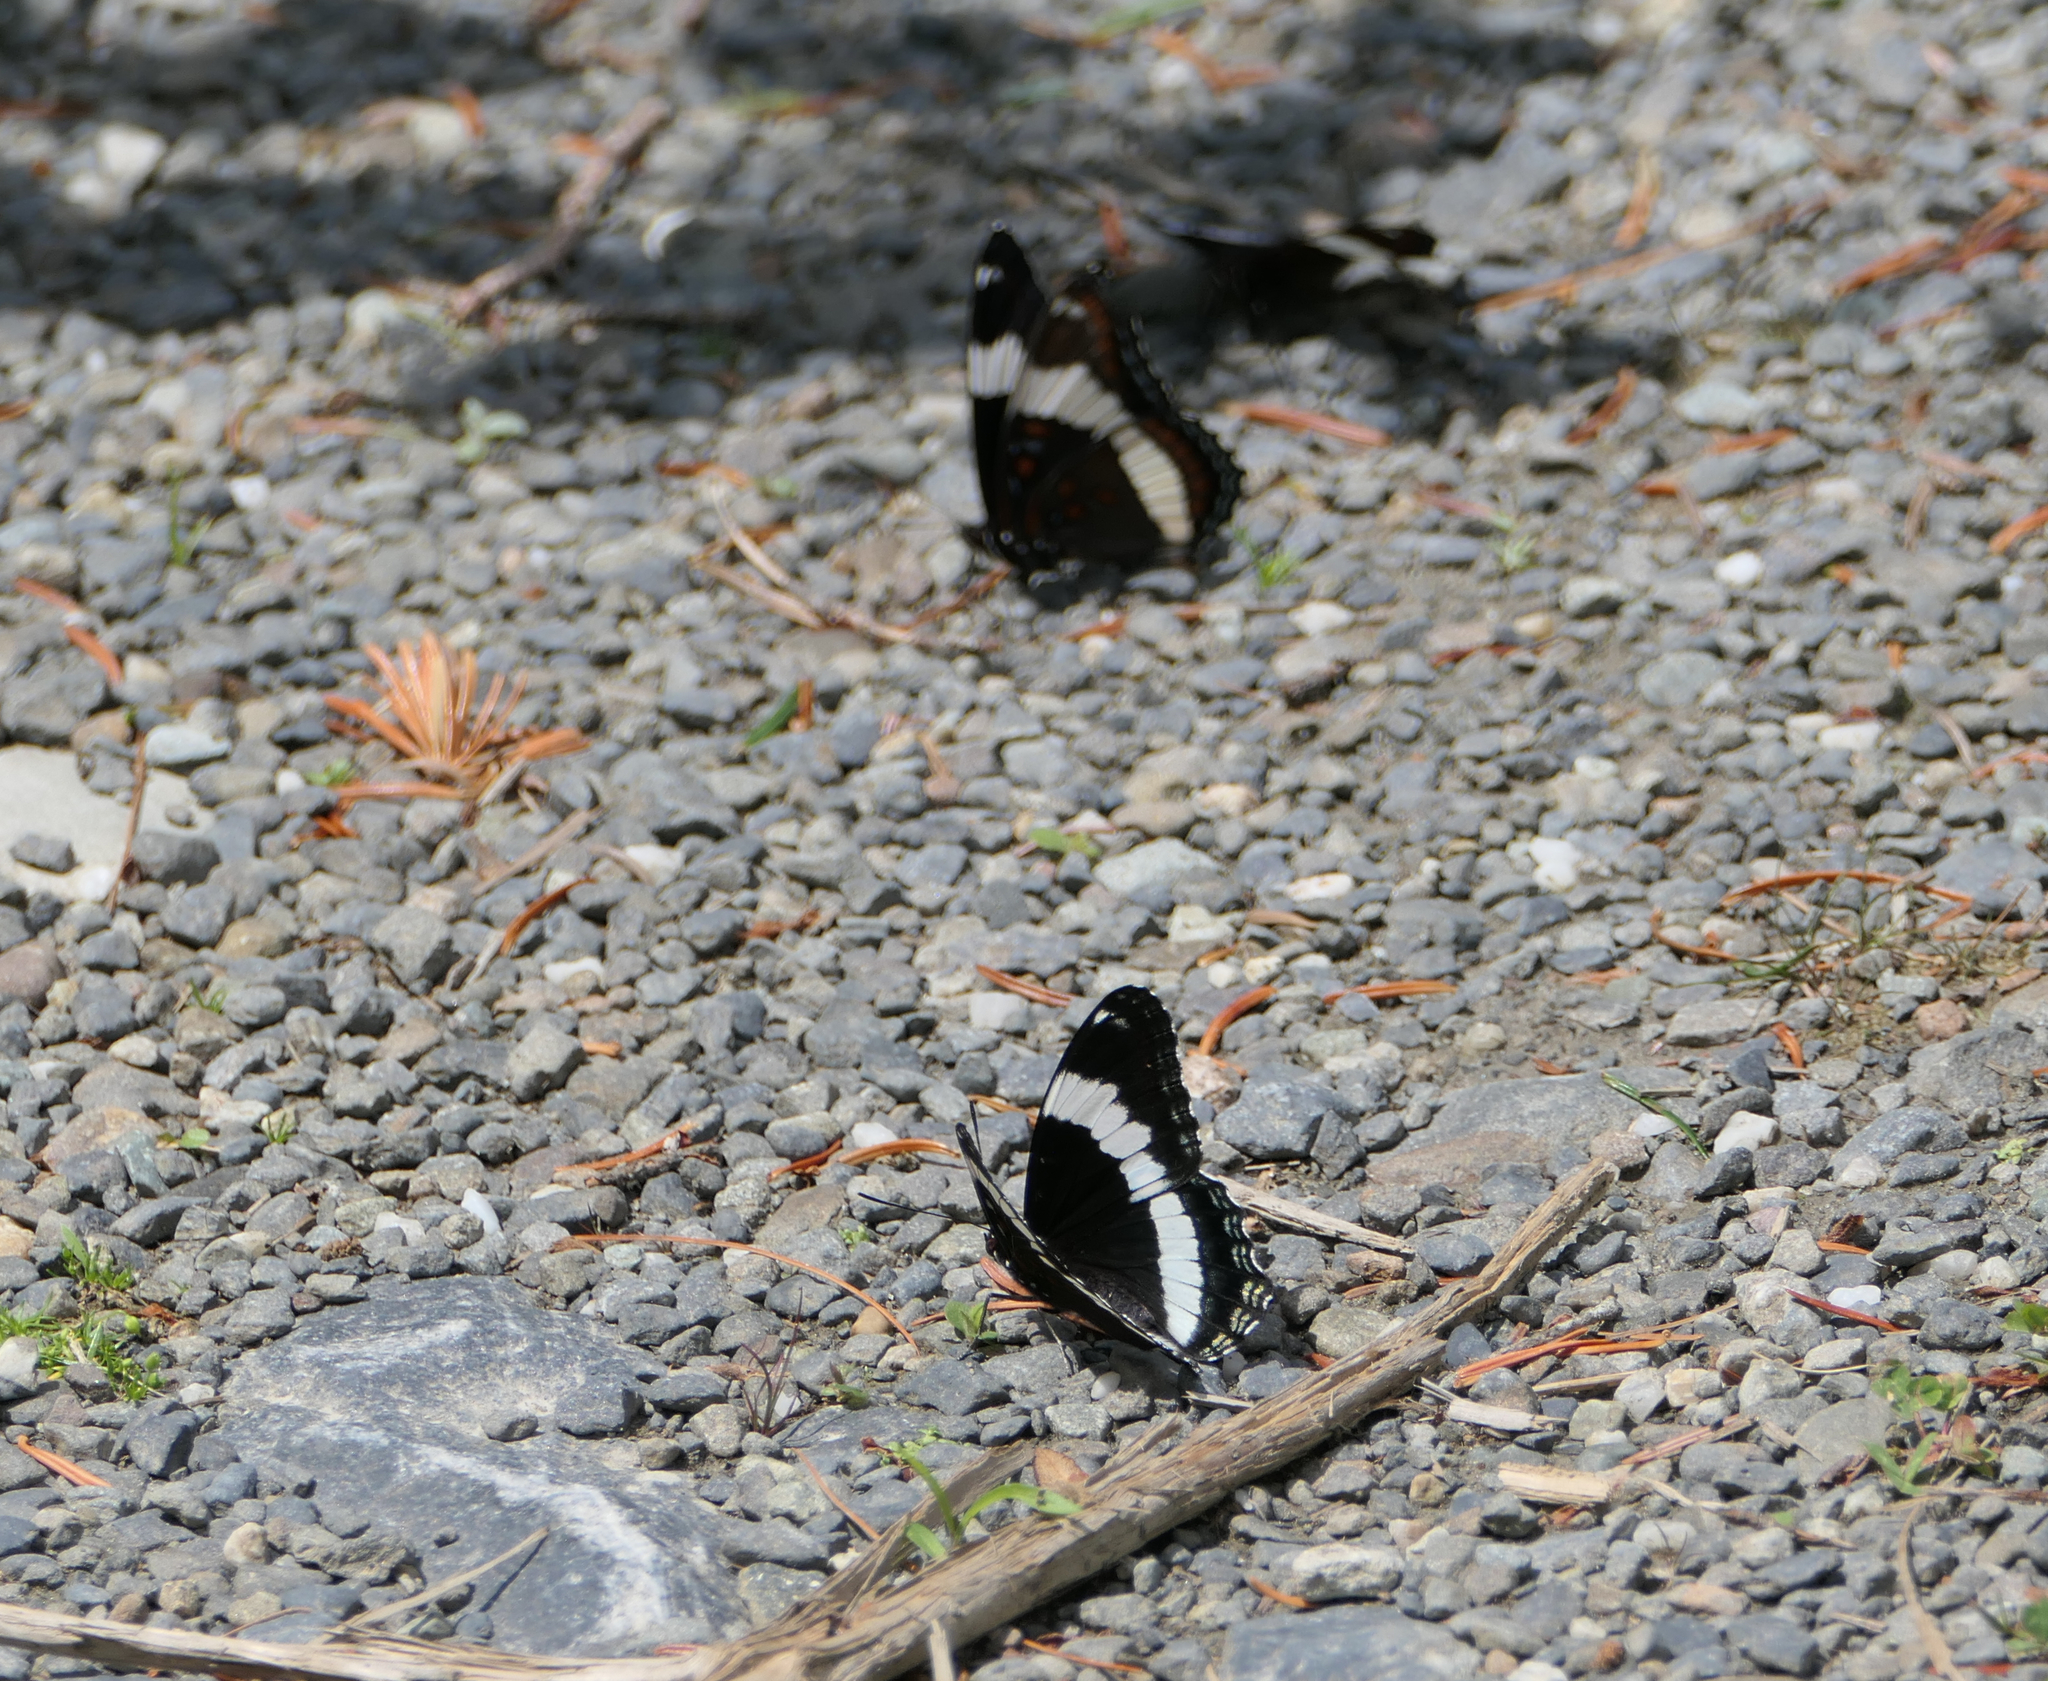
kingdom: Animalia
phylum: Arthropoda
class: Insecta
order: Lepidoptera
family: Nymphalidae
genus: Limenitis
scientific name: Limenitis arthemis
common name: Red-spotted admiral
